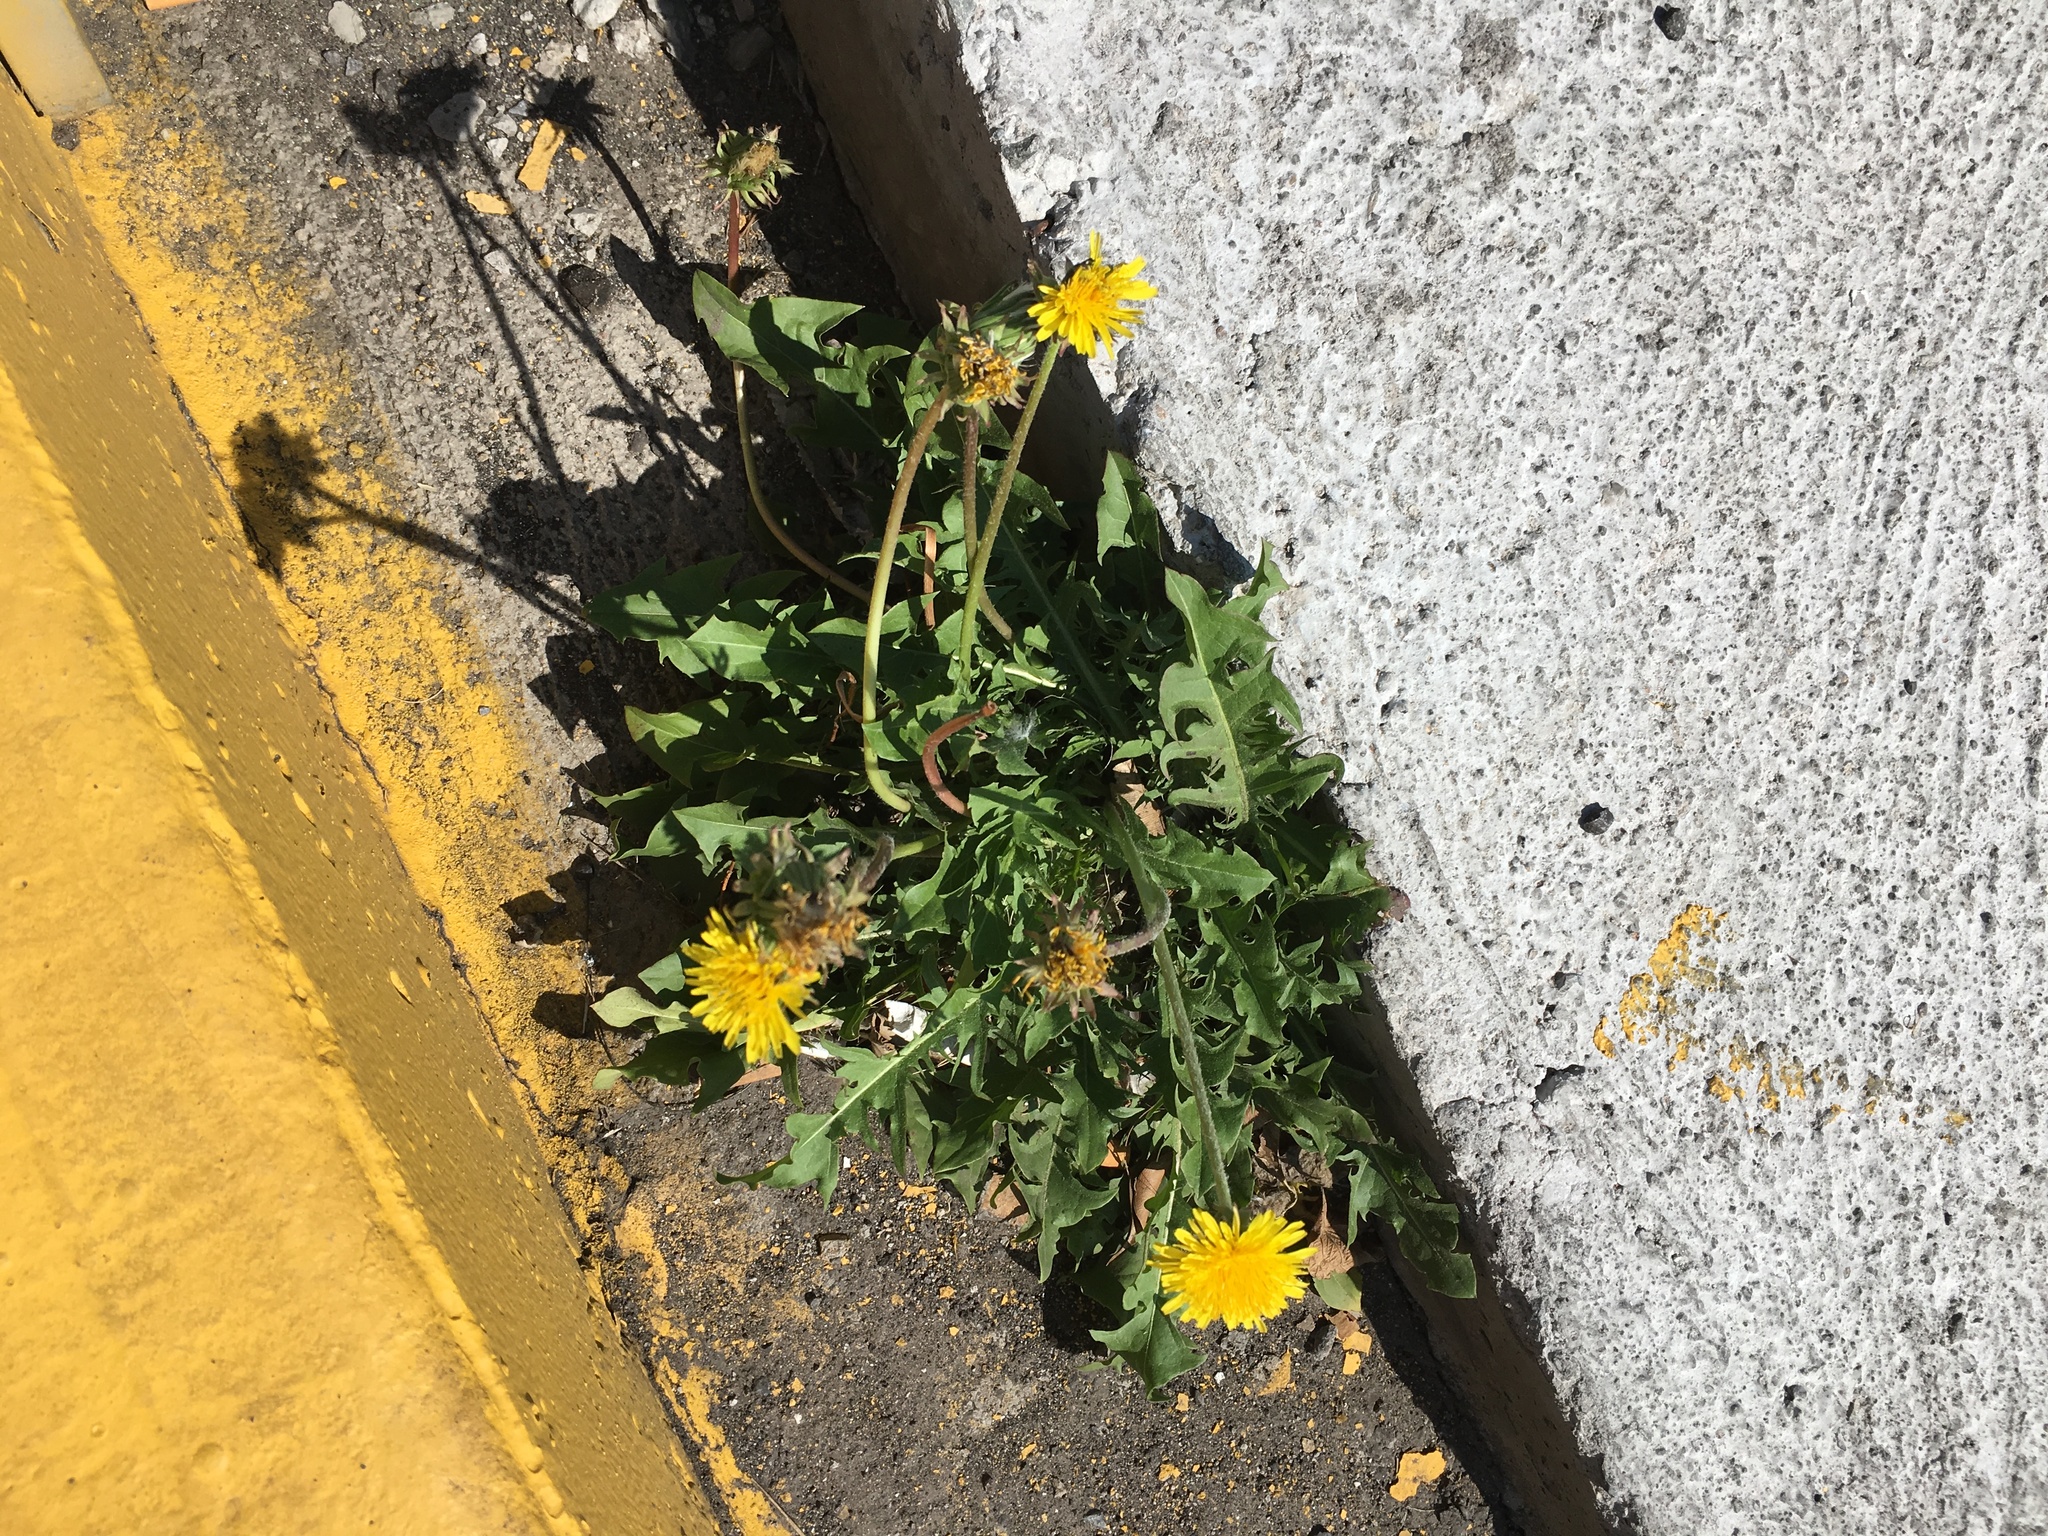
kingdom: Plantae
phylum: Tracheophyta
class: Magnoliopsida
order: Asterales
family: Asteraceae
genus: Taraxacum
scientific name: Taraxacum officinale
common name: Common dandelion
